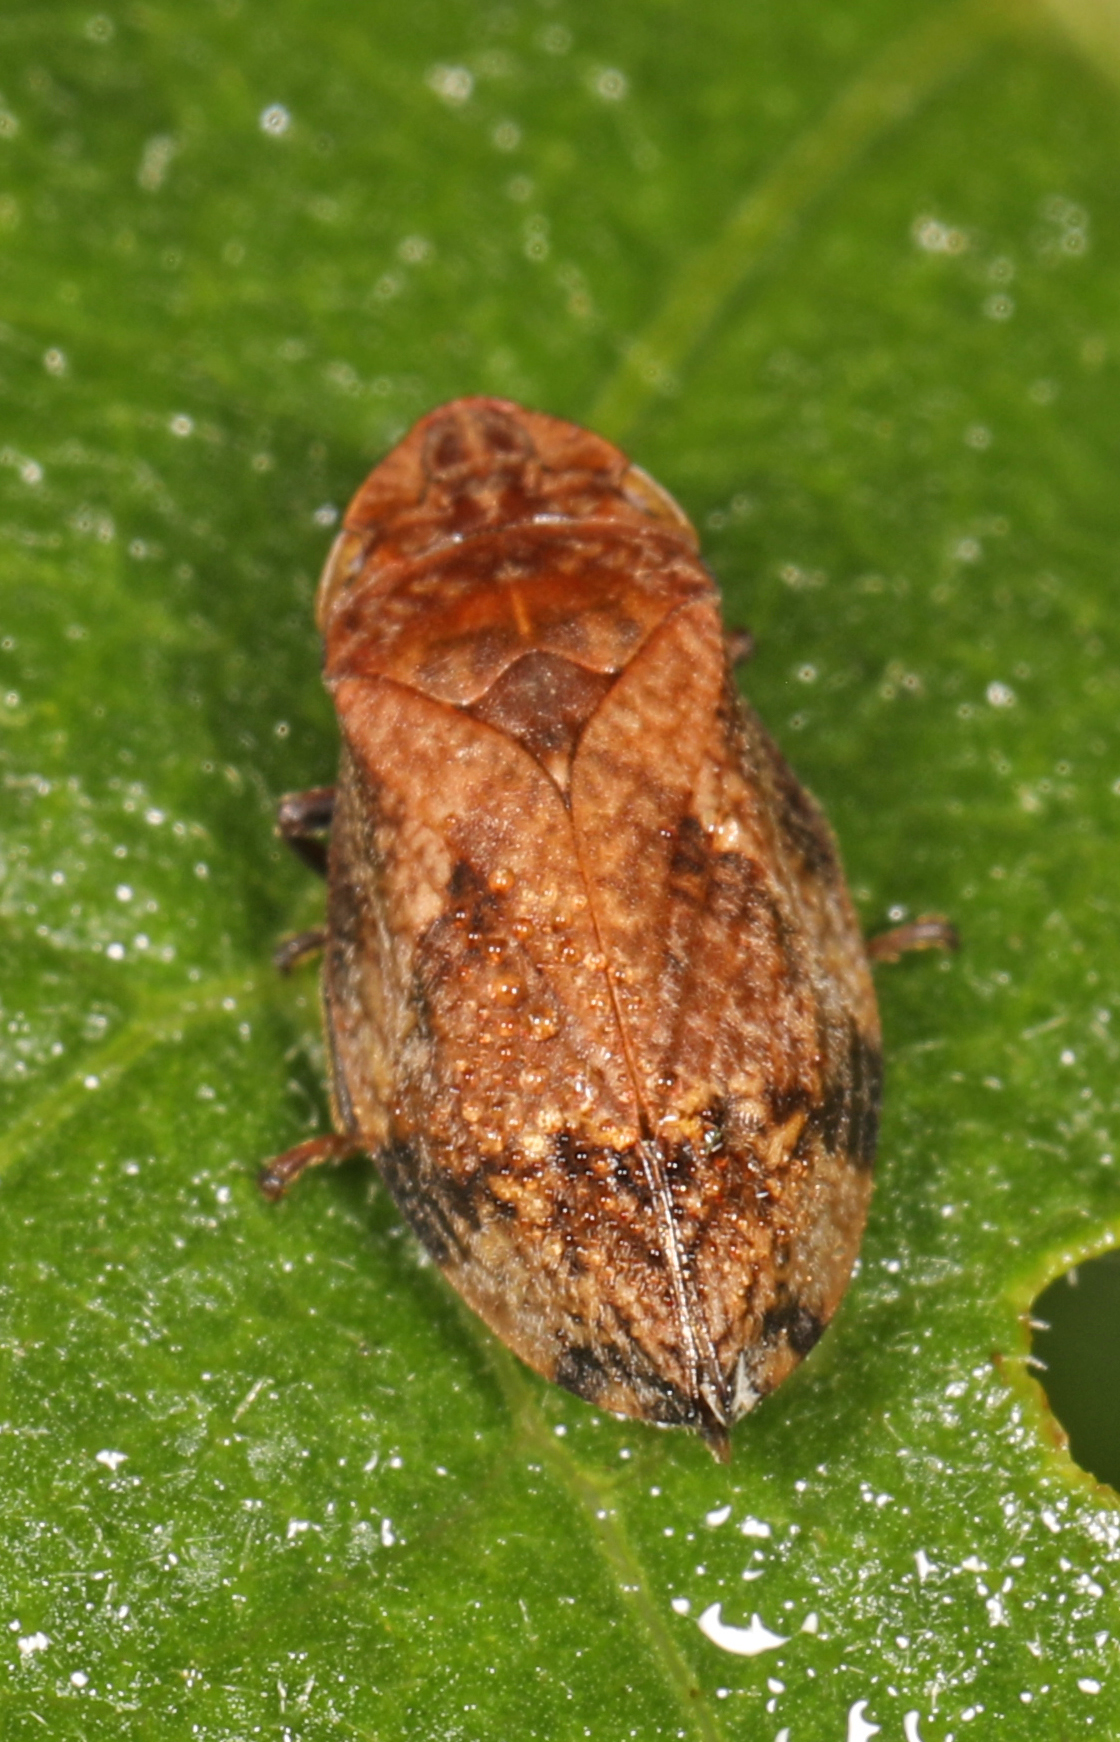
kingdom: Animalia
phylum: Arthropoda
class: Insecta
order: Hemiptera
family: Aphrophoridae
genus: Lepyronia
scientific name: Lepyronia quadrangularis
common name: Diamond-backed spittlebug
